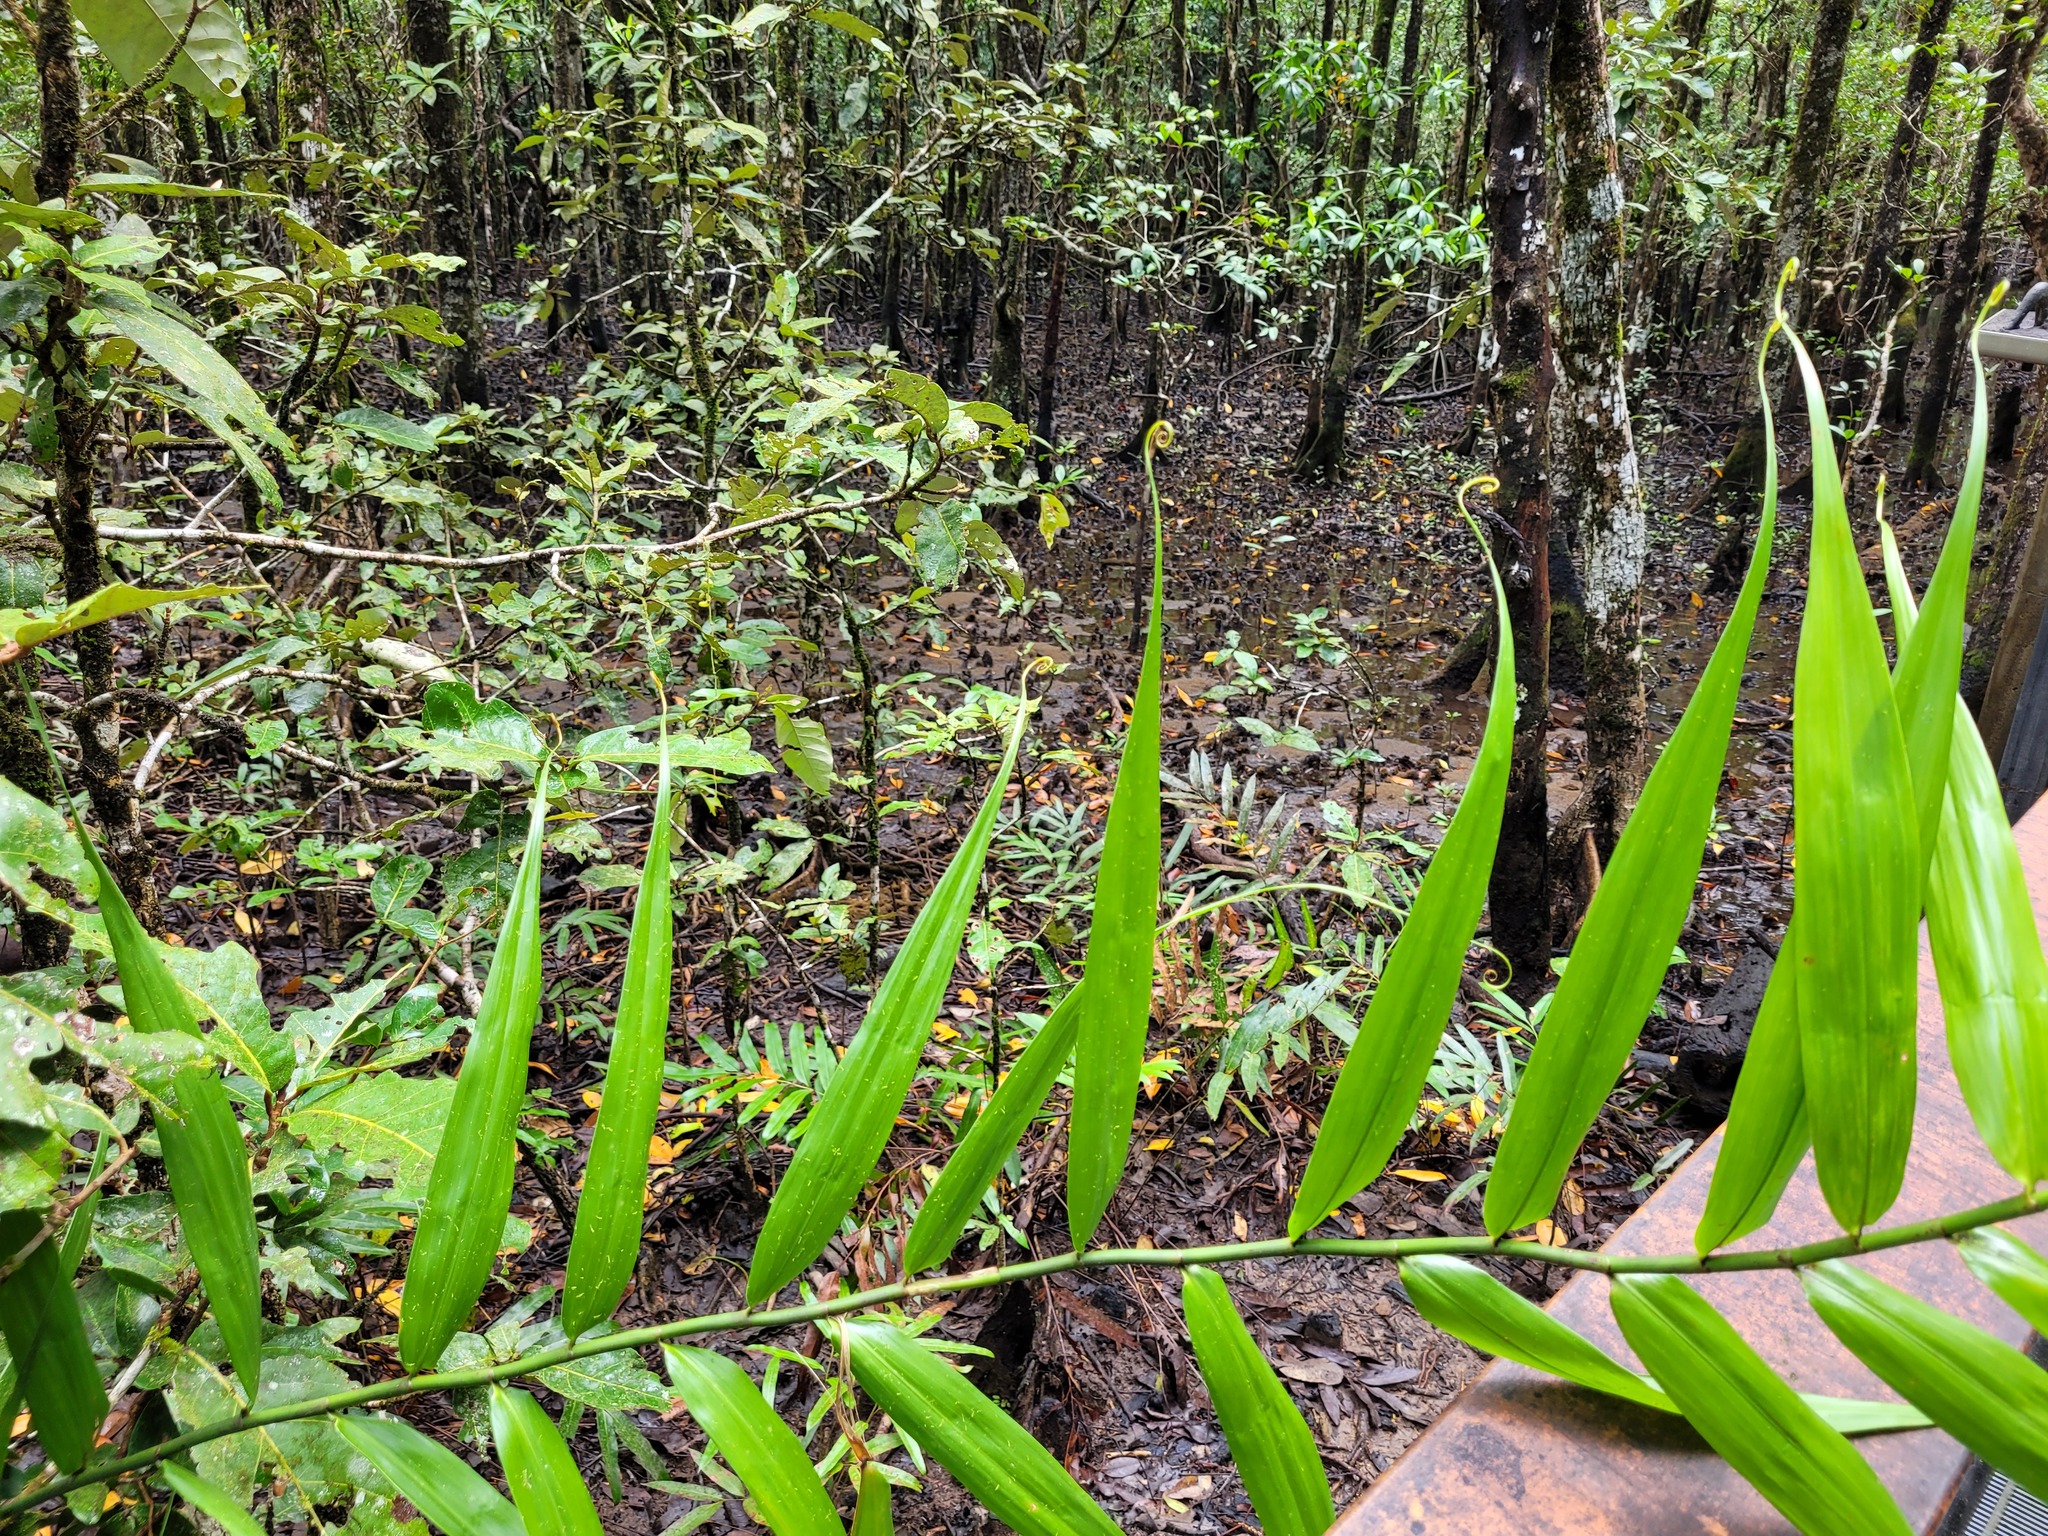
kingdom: Plantae
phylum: Tracheophyta
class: Liliopsida
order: Poales
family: Flagellariaceae
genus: Flagellaria
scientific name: Flagellaria indica
